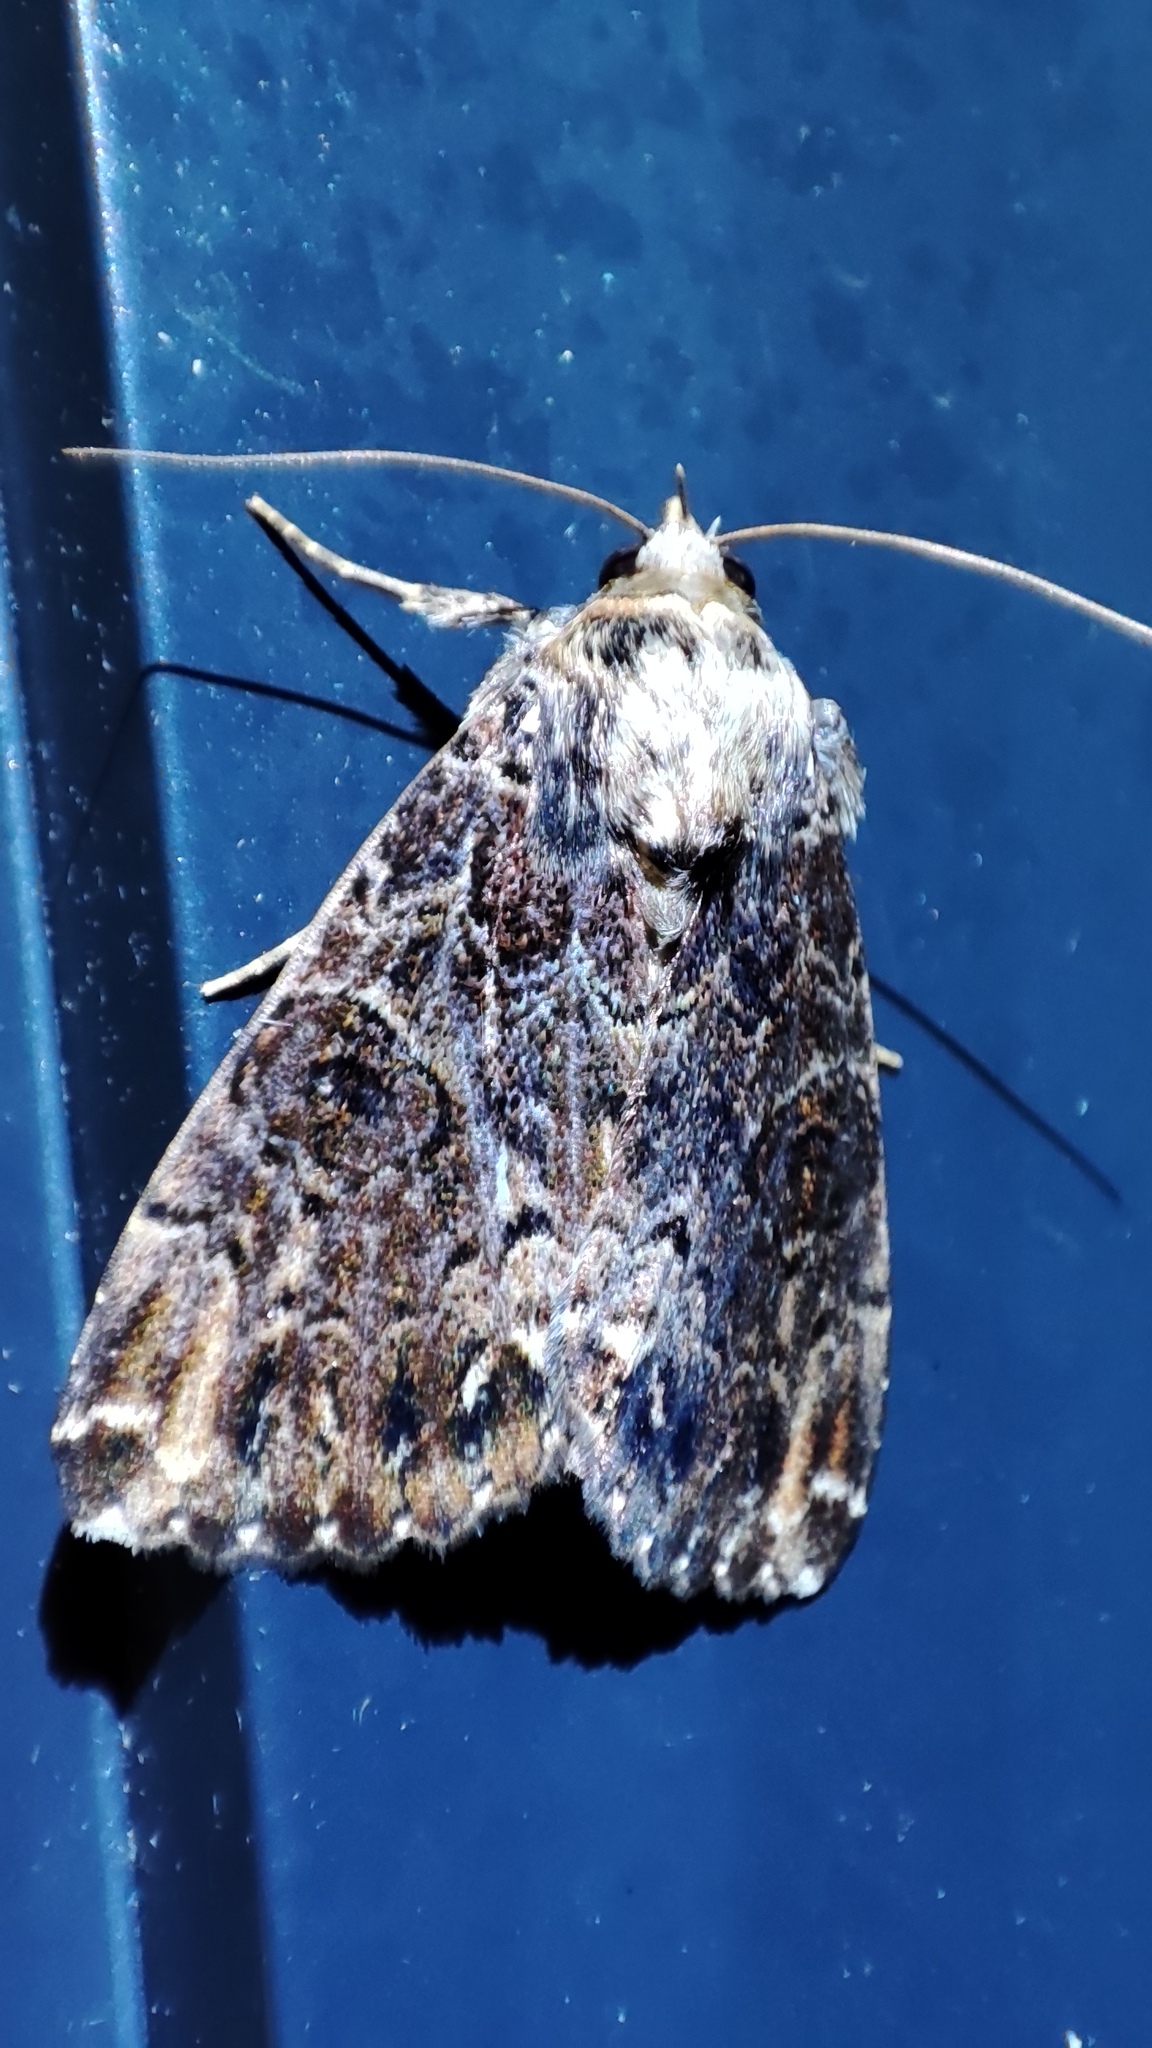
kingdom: Animalia
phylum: Arthropoda
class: Insecta
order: Lepidoptera
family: Erebidae
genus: Tolna
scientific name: Tolna variegata
